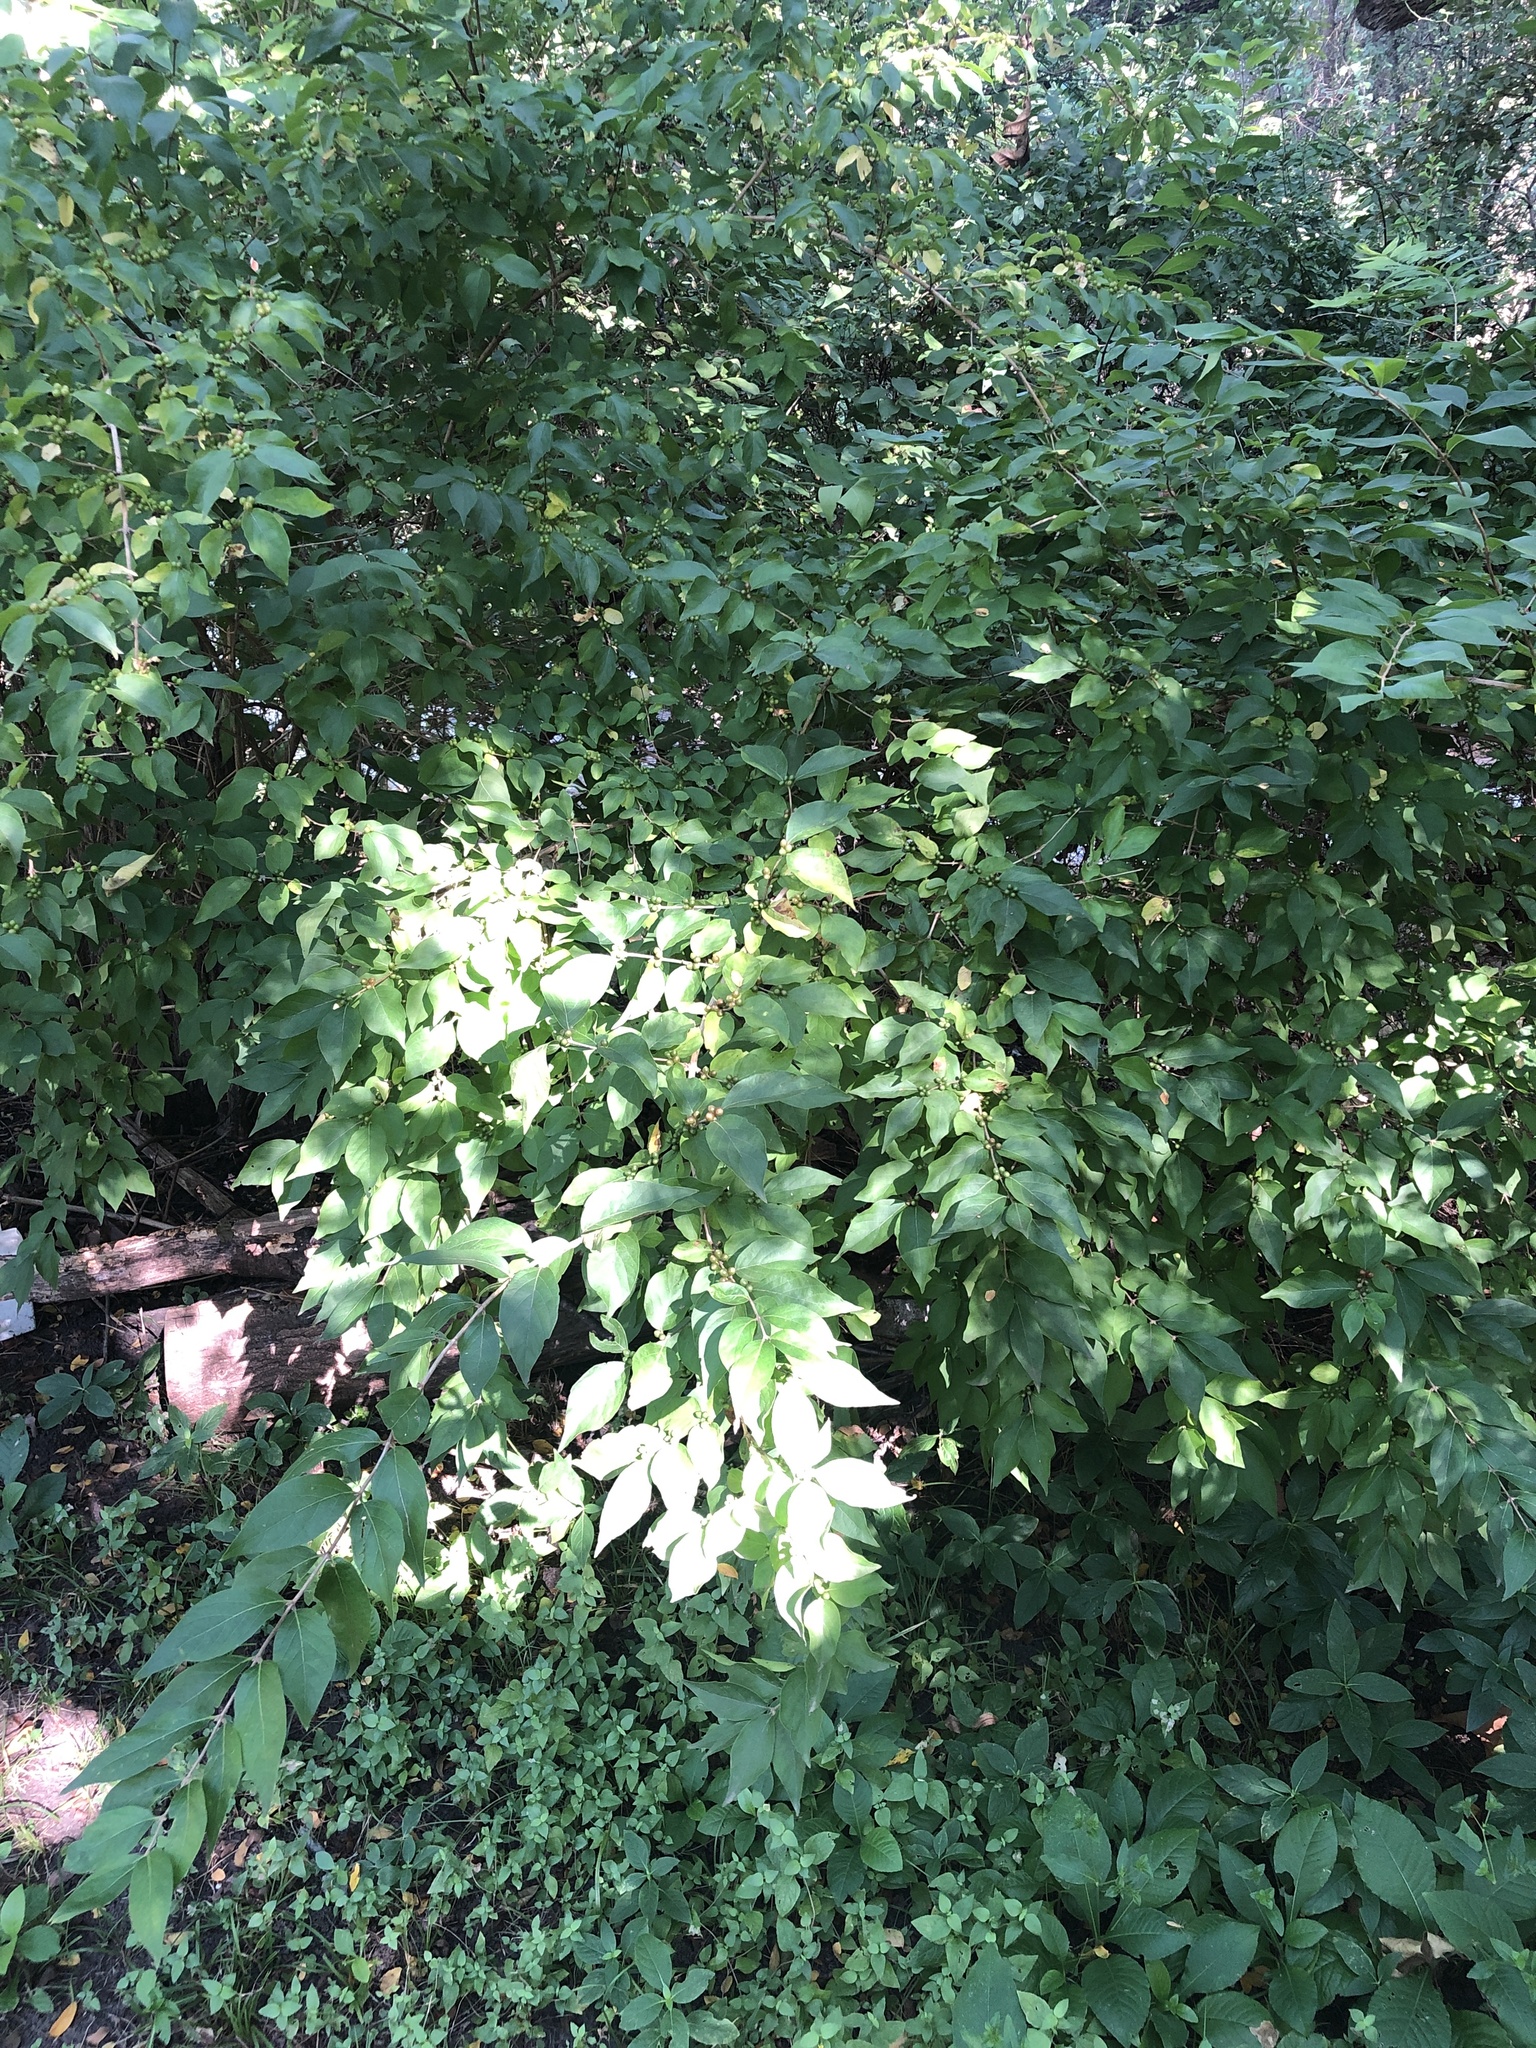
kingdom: Plantae
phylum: Tracheophyta
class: Magnoliopsida
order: Dipsacales
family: Caprifoliaceae
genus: Lonicera
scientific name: Lonicera maackii
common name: Amur honeysuckle
